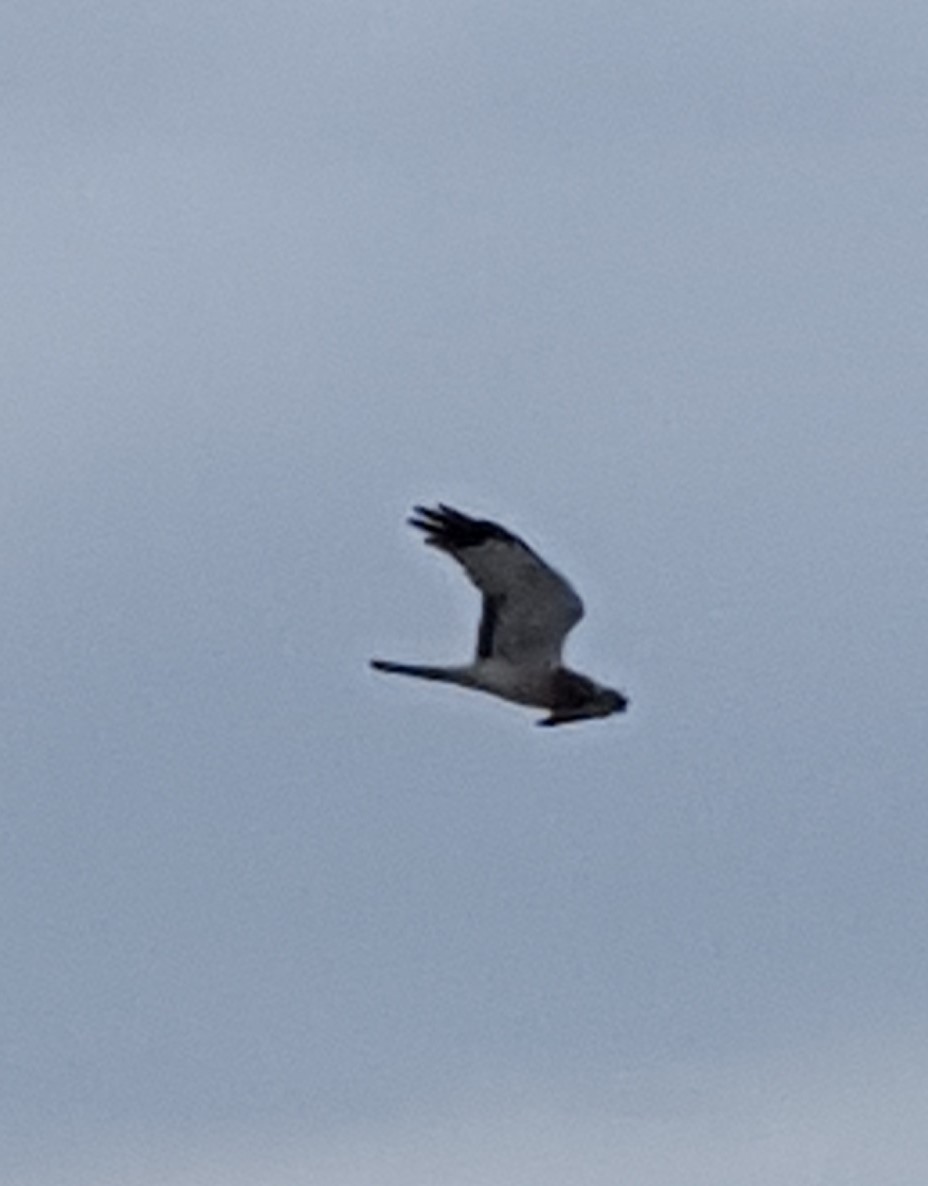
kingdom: Animalia
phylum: Chordata
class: Aves
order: Accipitriformes
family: Accipitridae
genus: Circus
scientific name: Circus cyaneus
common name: Hen harrier
